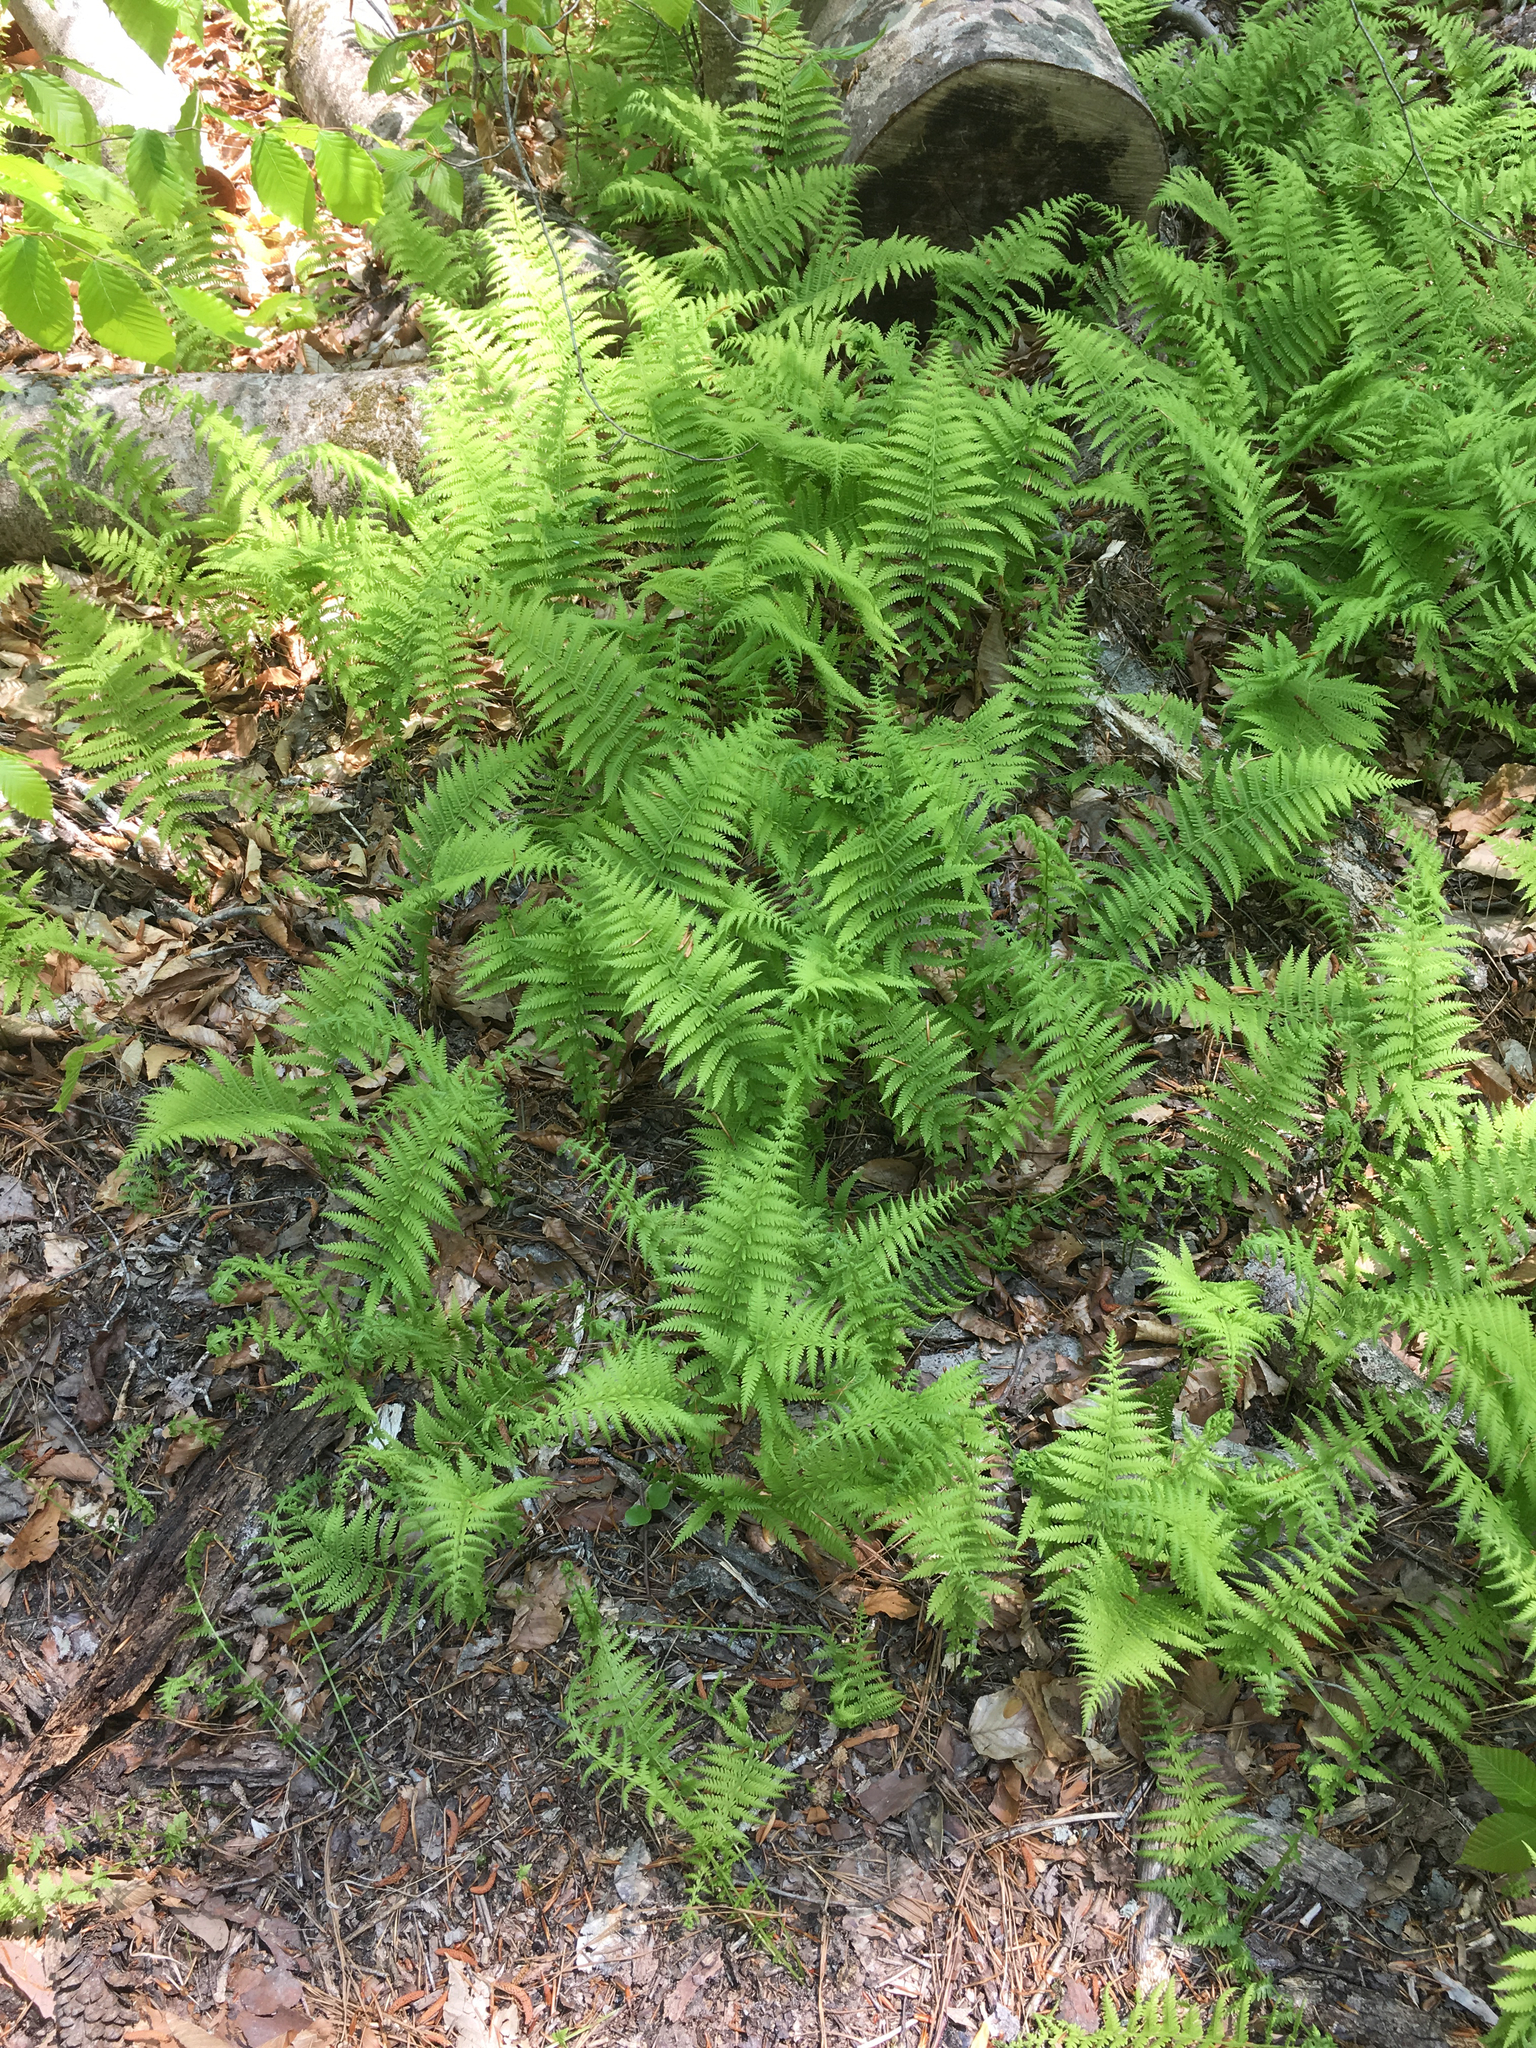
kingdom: Plantae
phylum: Tracheophyta
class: Polypodiopsida
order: Polypodiales
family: Thelypteridaceae
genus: Amauropelta
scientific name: Amauropelta noveboracensis
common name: New york fern
